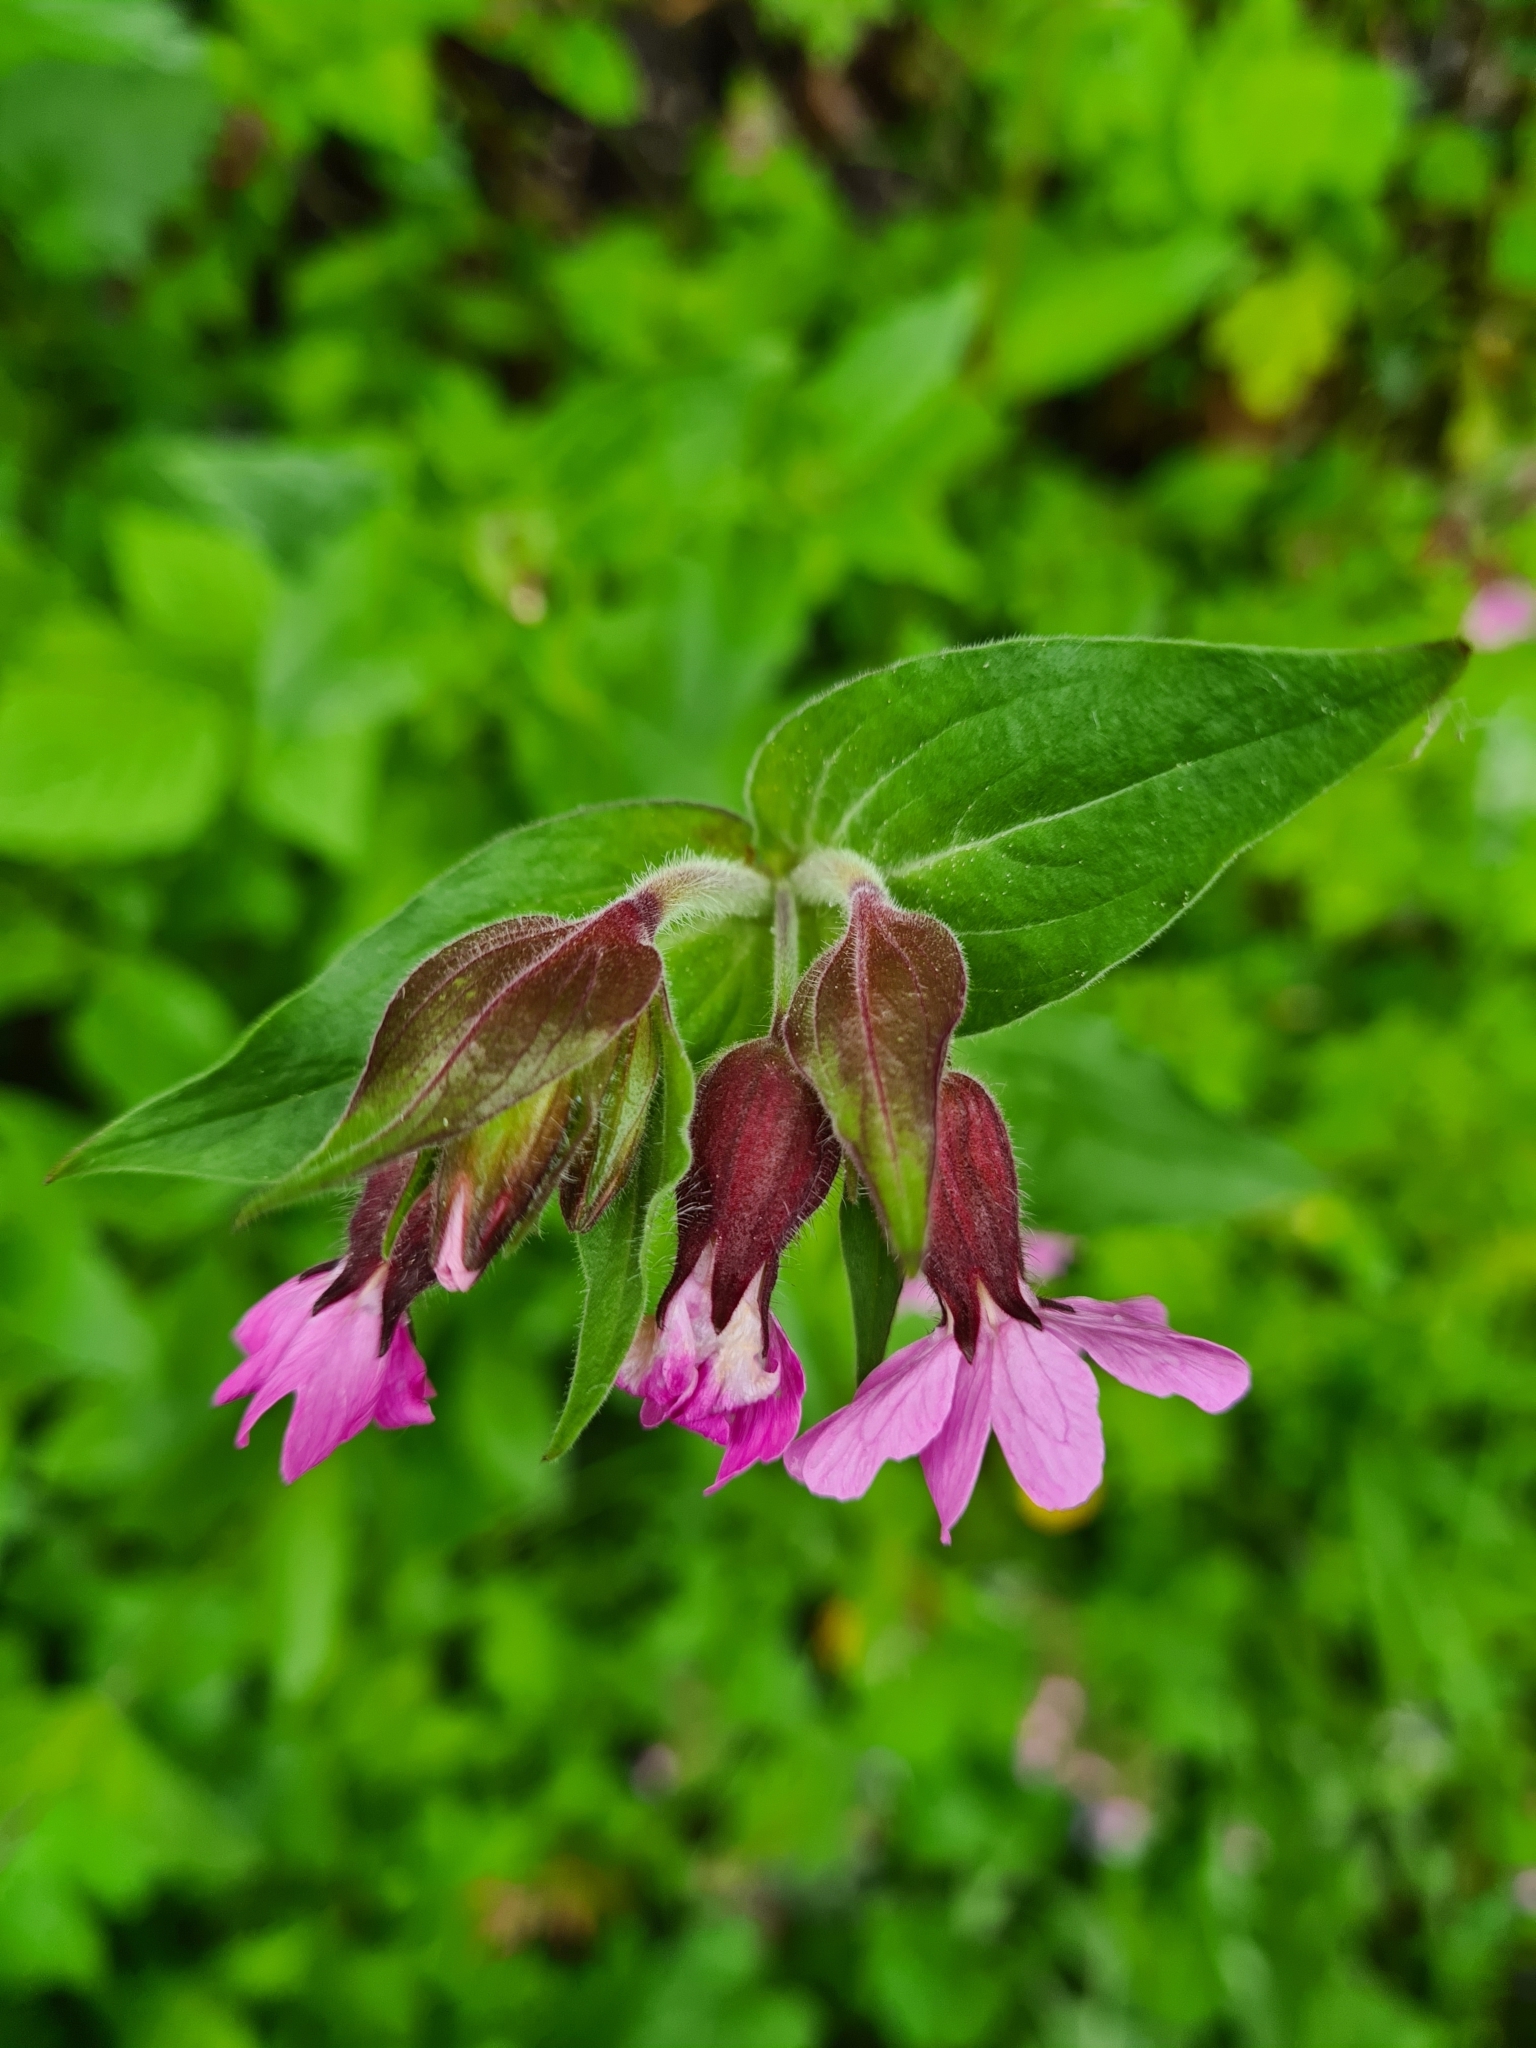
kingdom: Plantae
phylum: Tracheophyta
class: Magnoliopsida
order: Caryophyllales
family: Caryophyllaceae
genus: Silene
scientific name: Silene dioica
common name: Red campion
